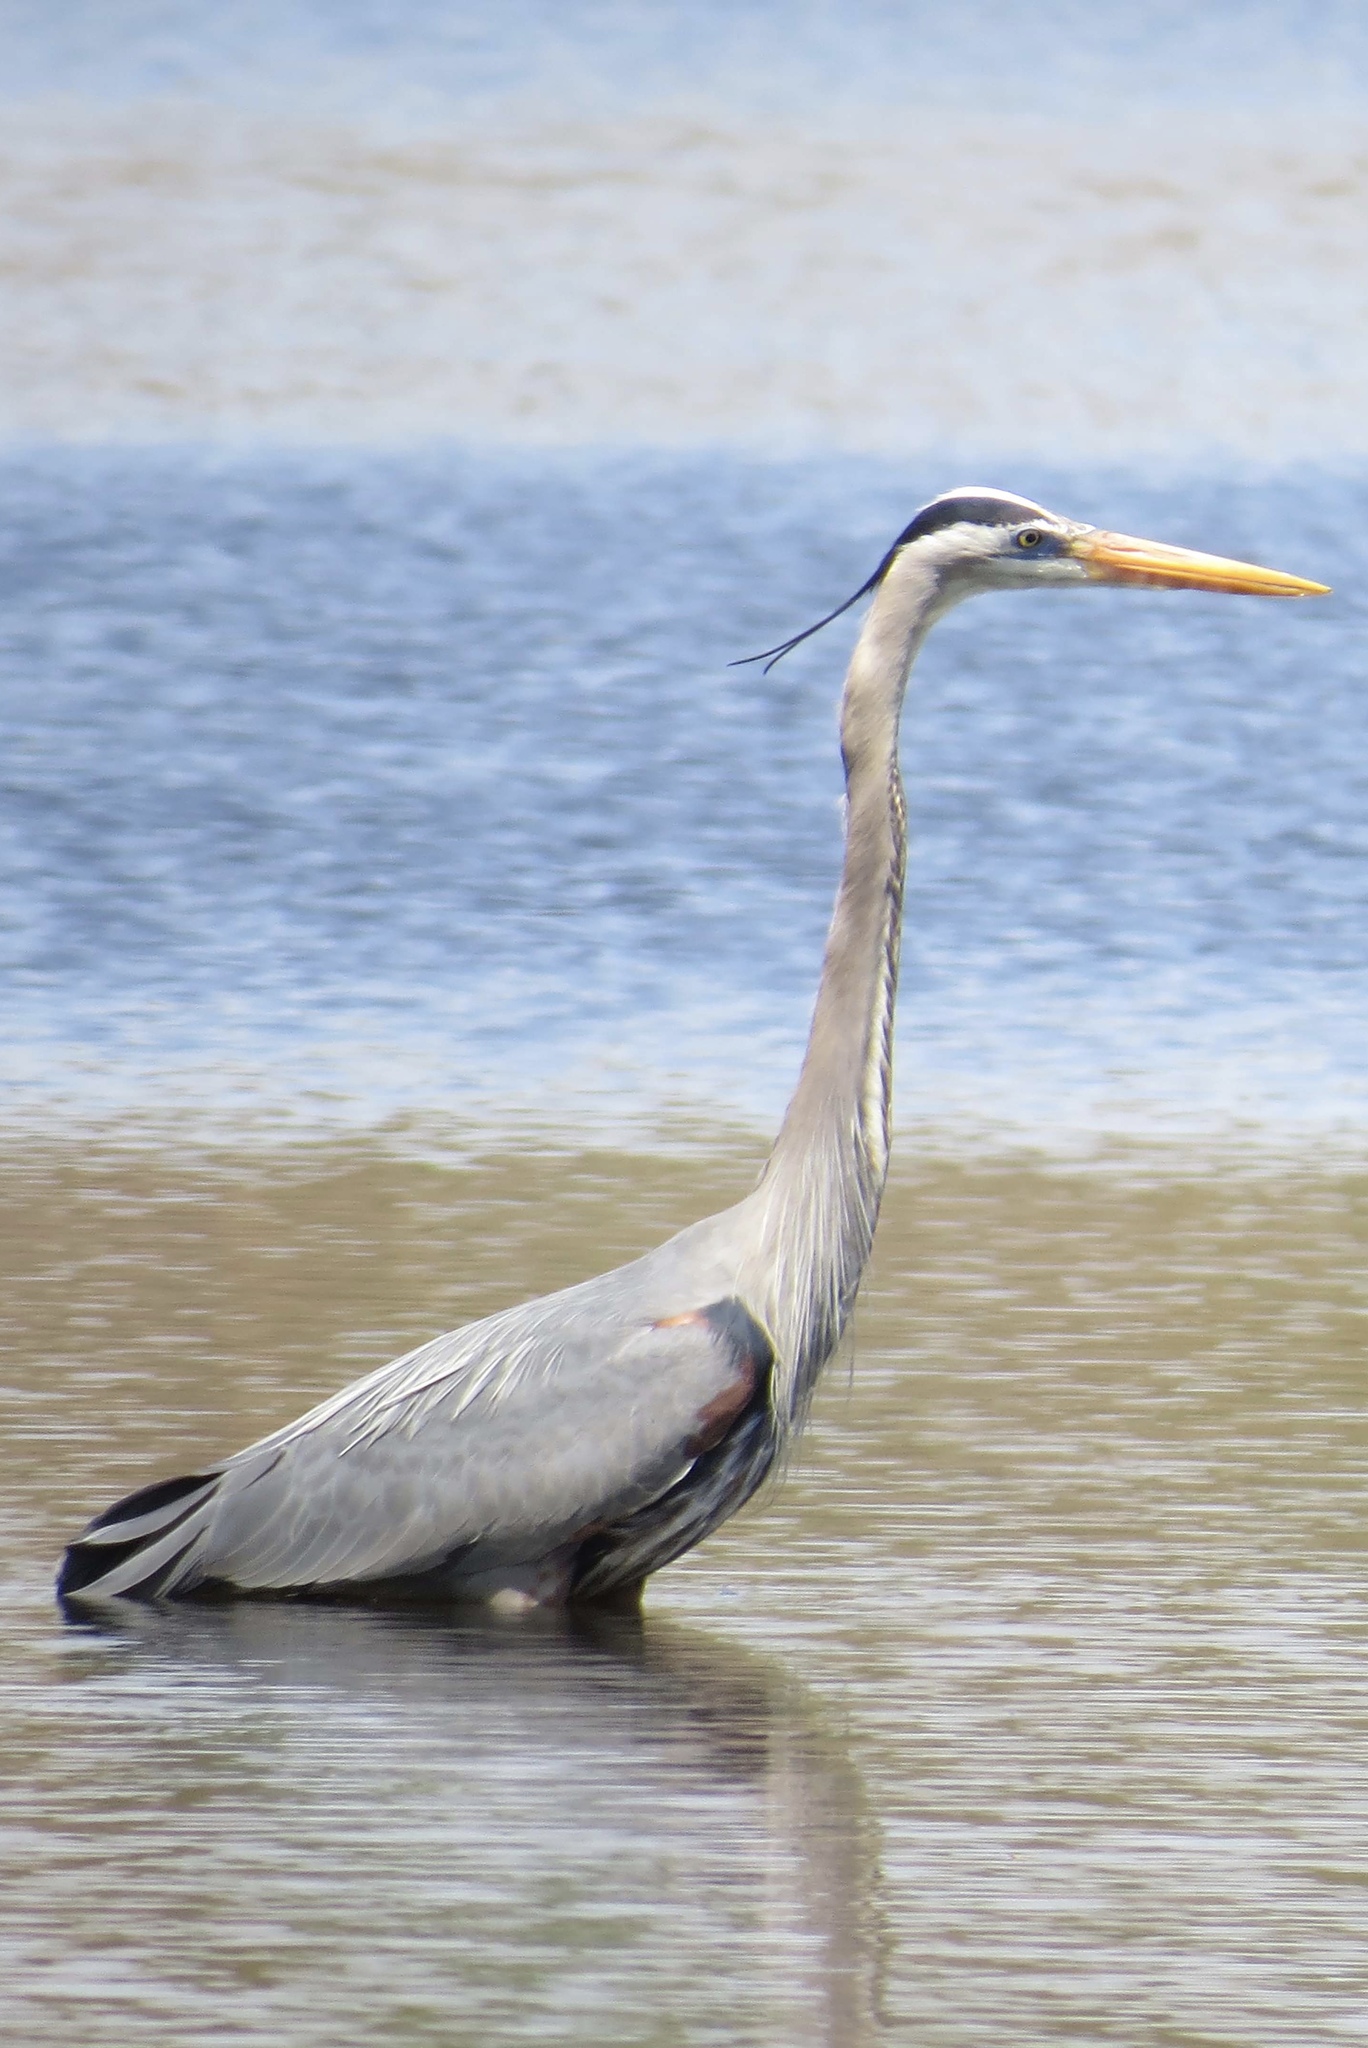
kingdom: Animalia
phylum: Chordata
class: Aves
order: Pelecaniformes
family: Ardeidae
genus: Ardea
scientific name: Ardea herodias
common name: Great blue heron
